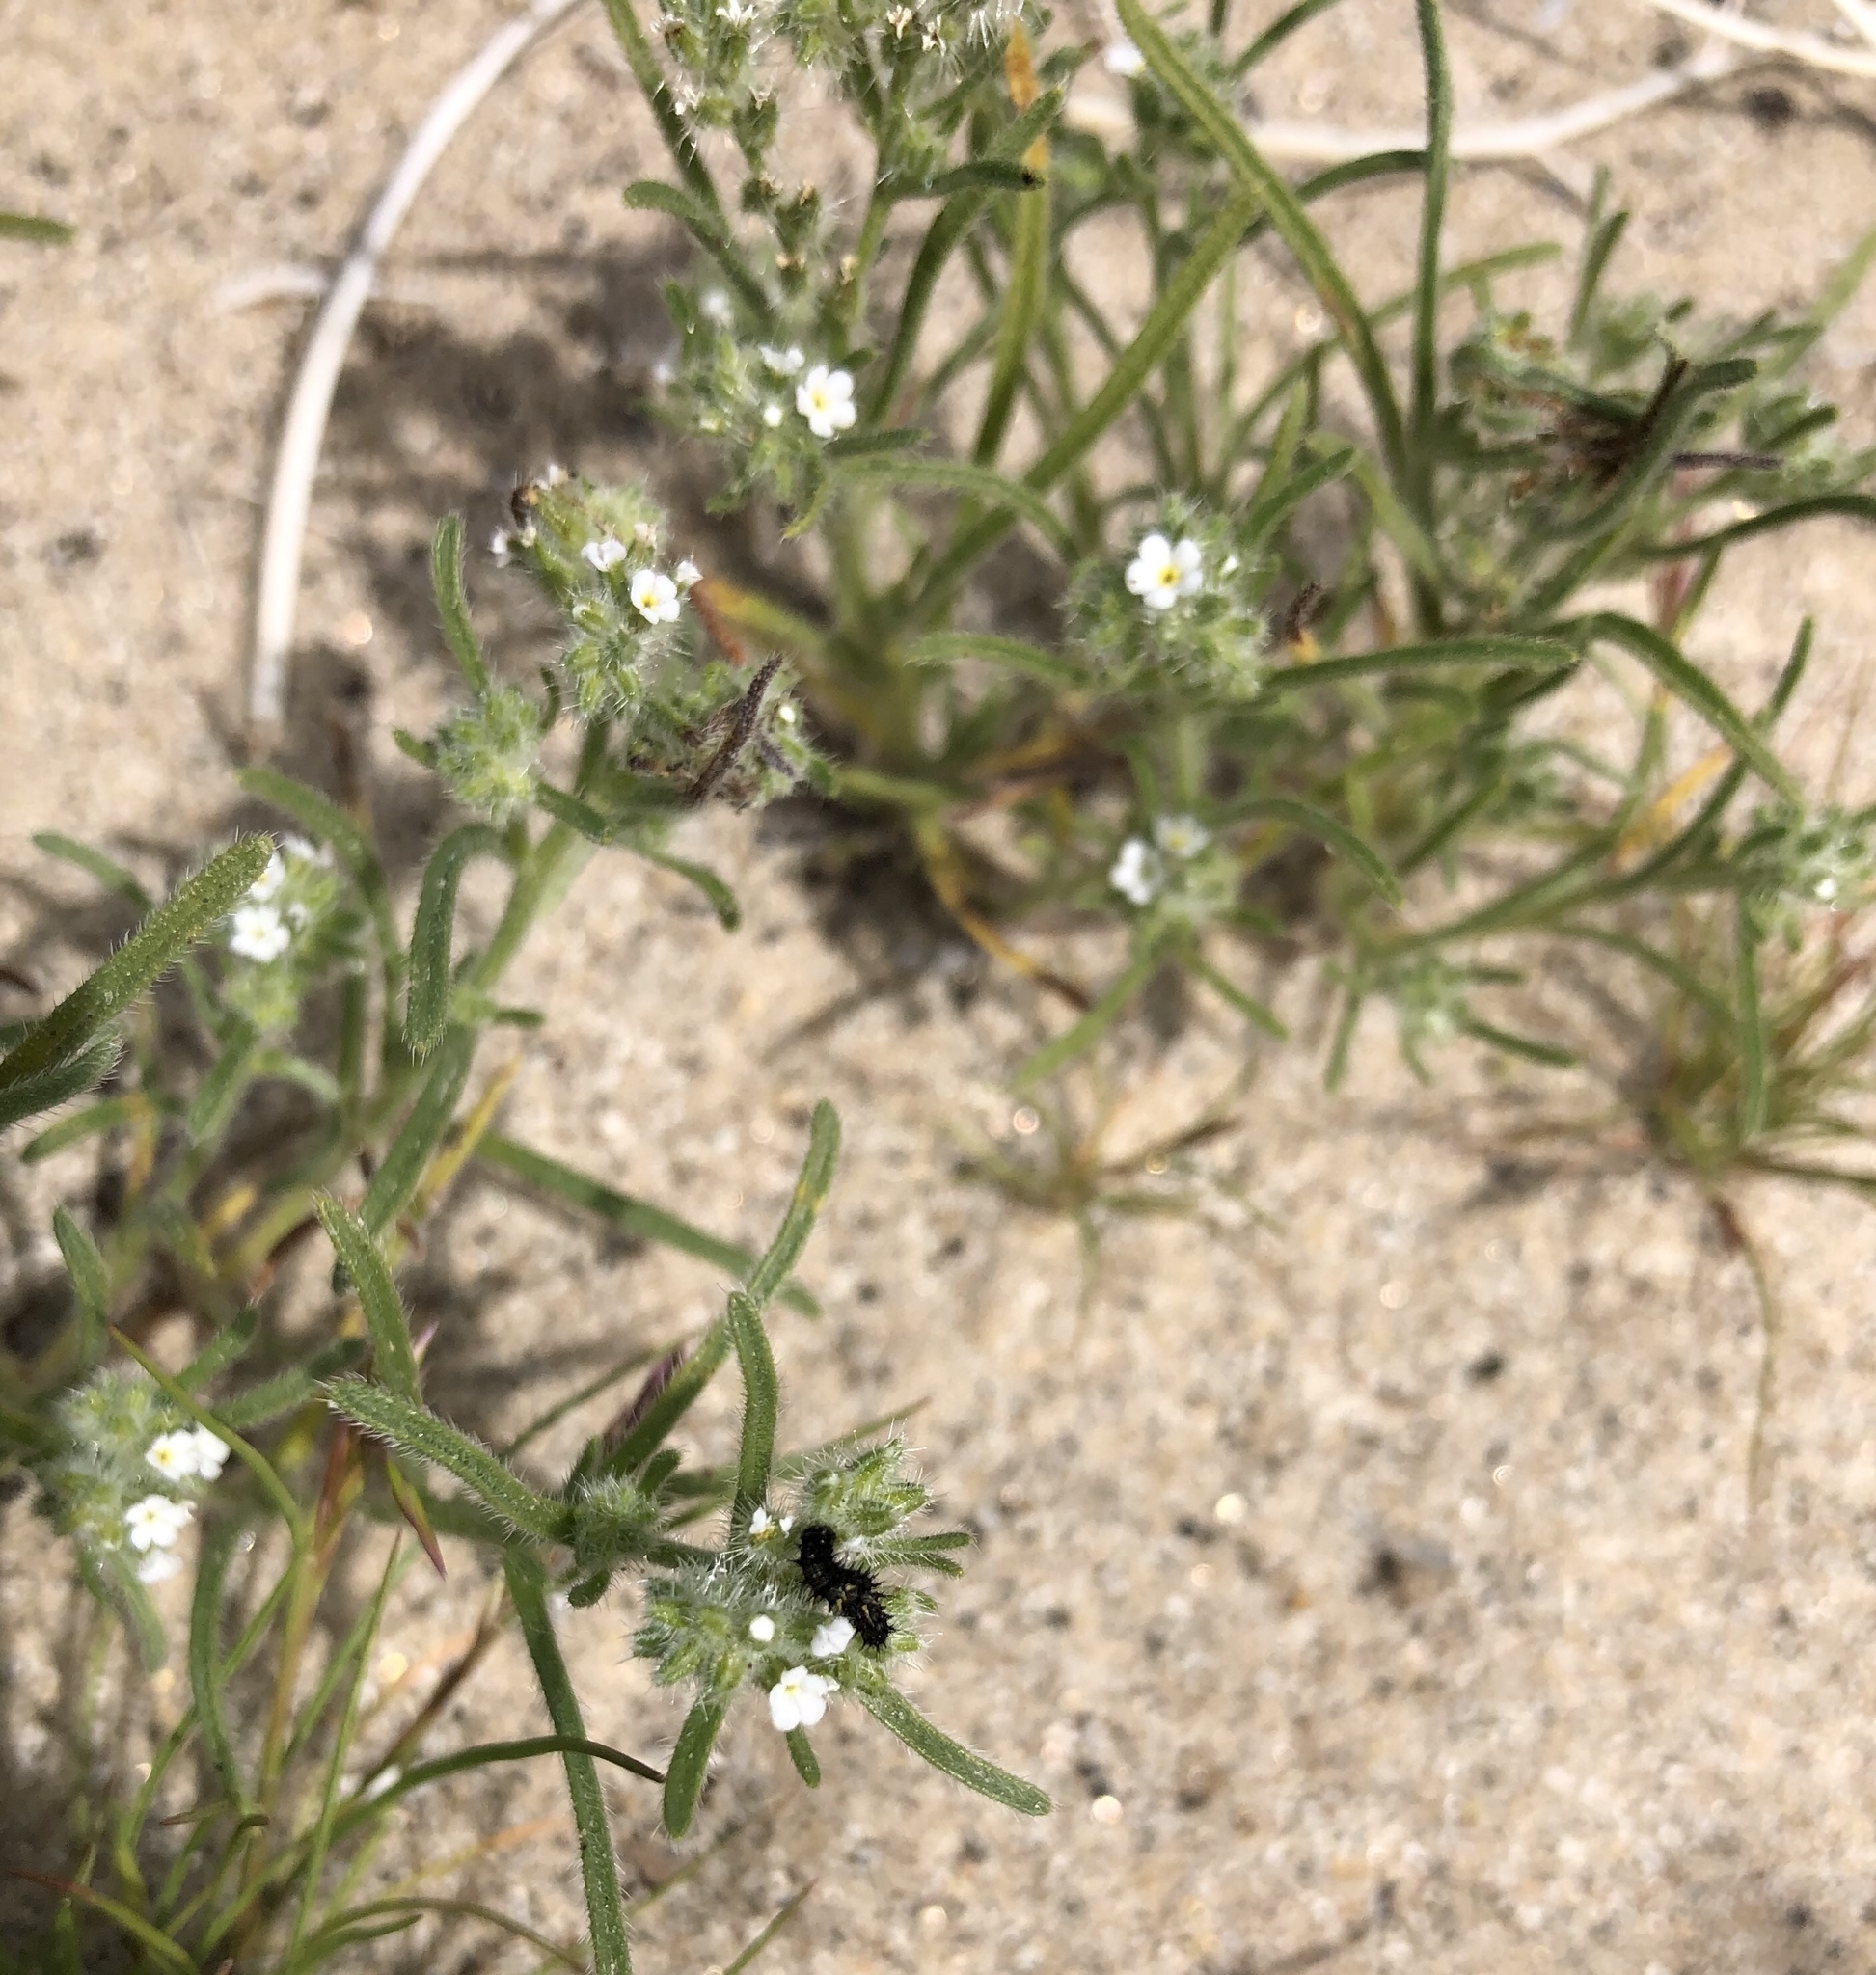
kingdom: Plantae
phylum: Tracheophyta
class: Magnoliopsida
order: Boraginales
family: Boraginaceae
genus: Johnstonella
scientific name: Johnstonella angustifolia
